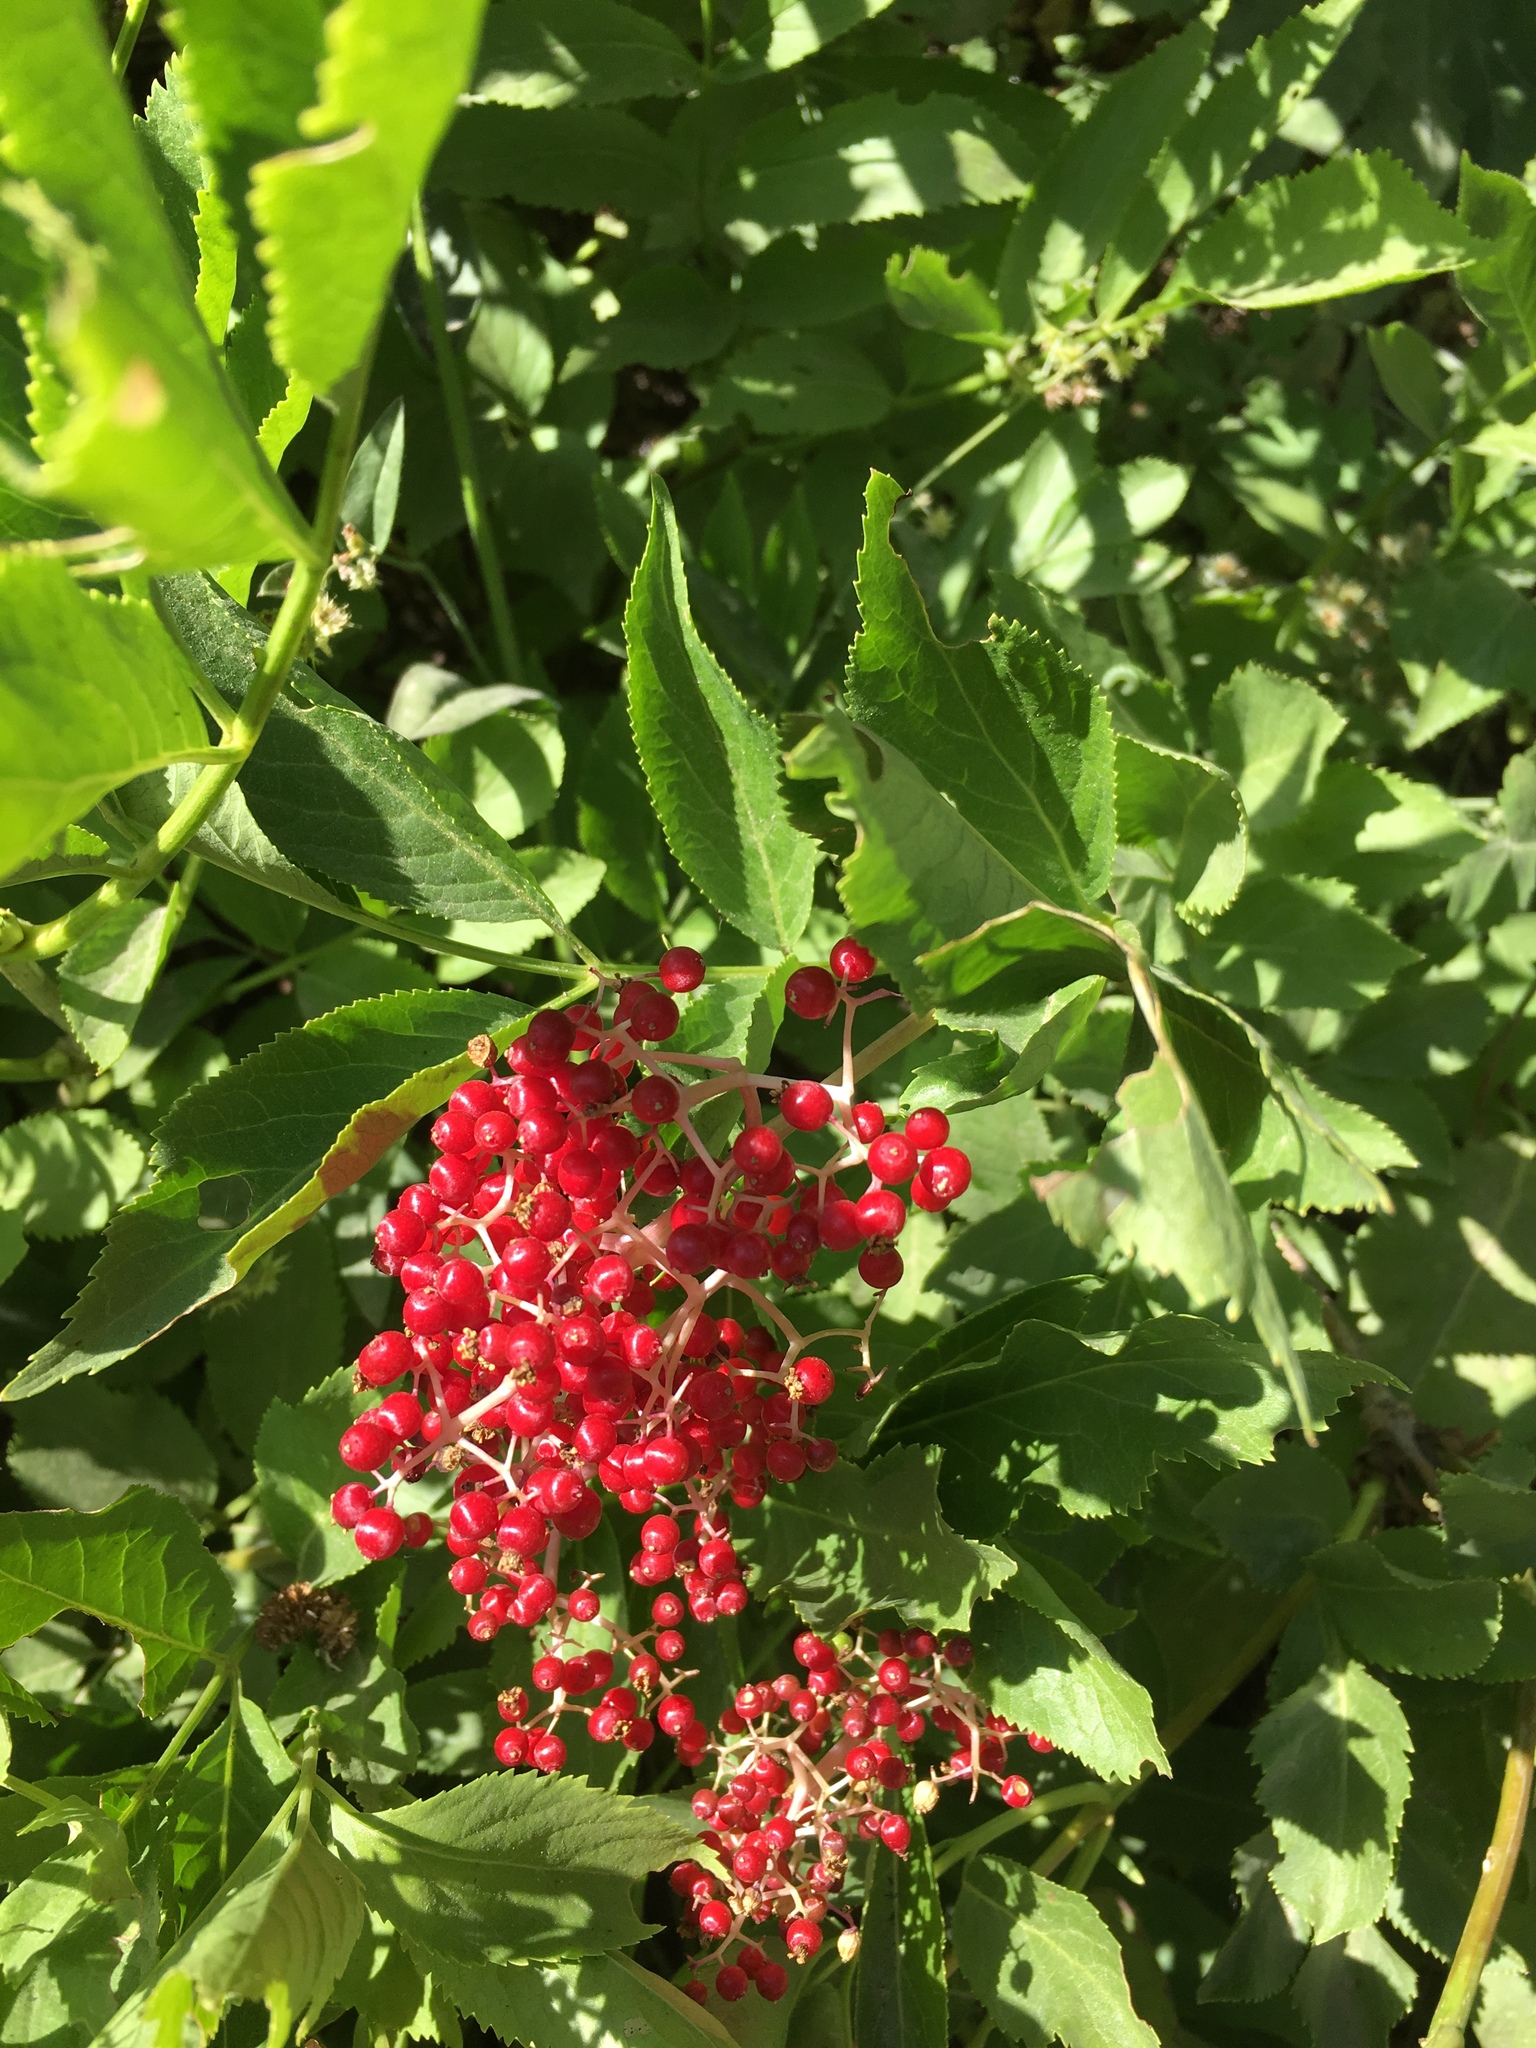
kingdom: Plantae
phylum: Tracheophyta
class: Magnoliopsida
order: Dipsacales
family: Viburnaceae
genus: Sambucus
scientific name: Sambucus racemosa
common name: Red-berried elder
